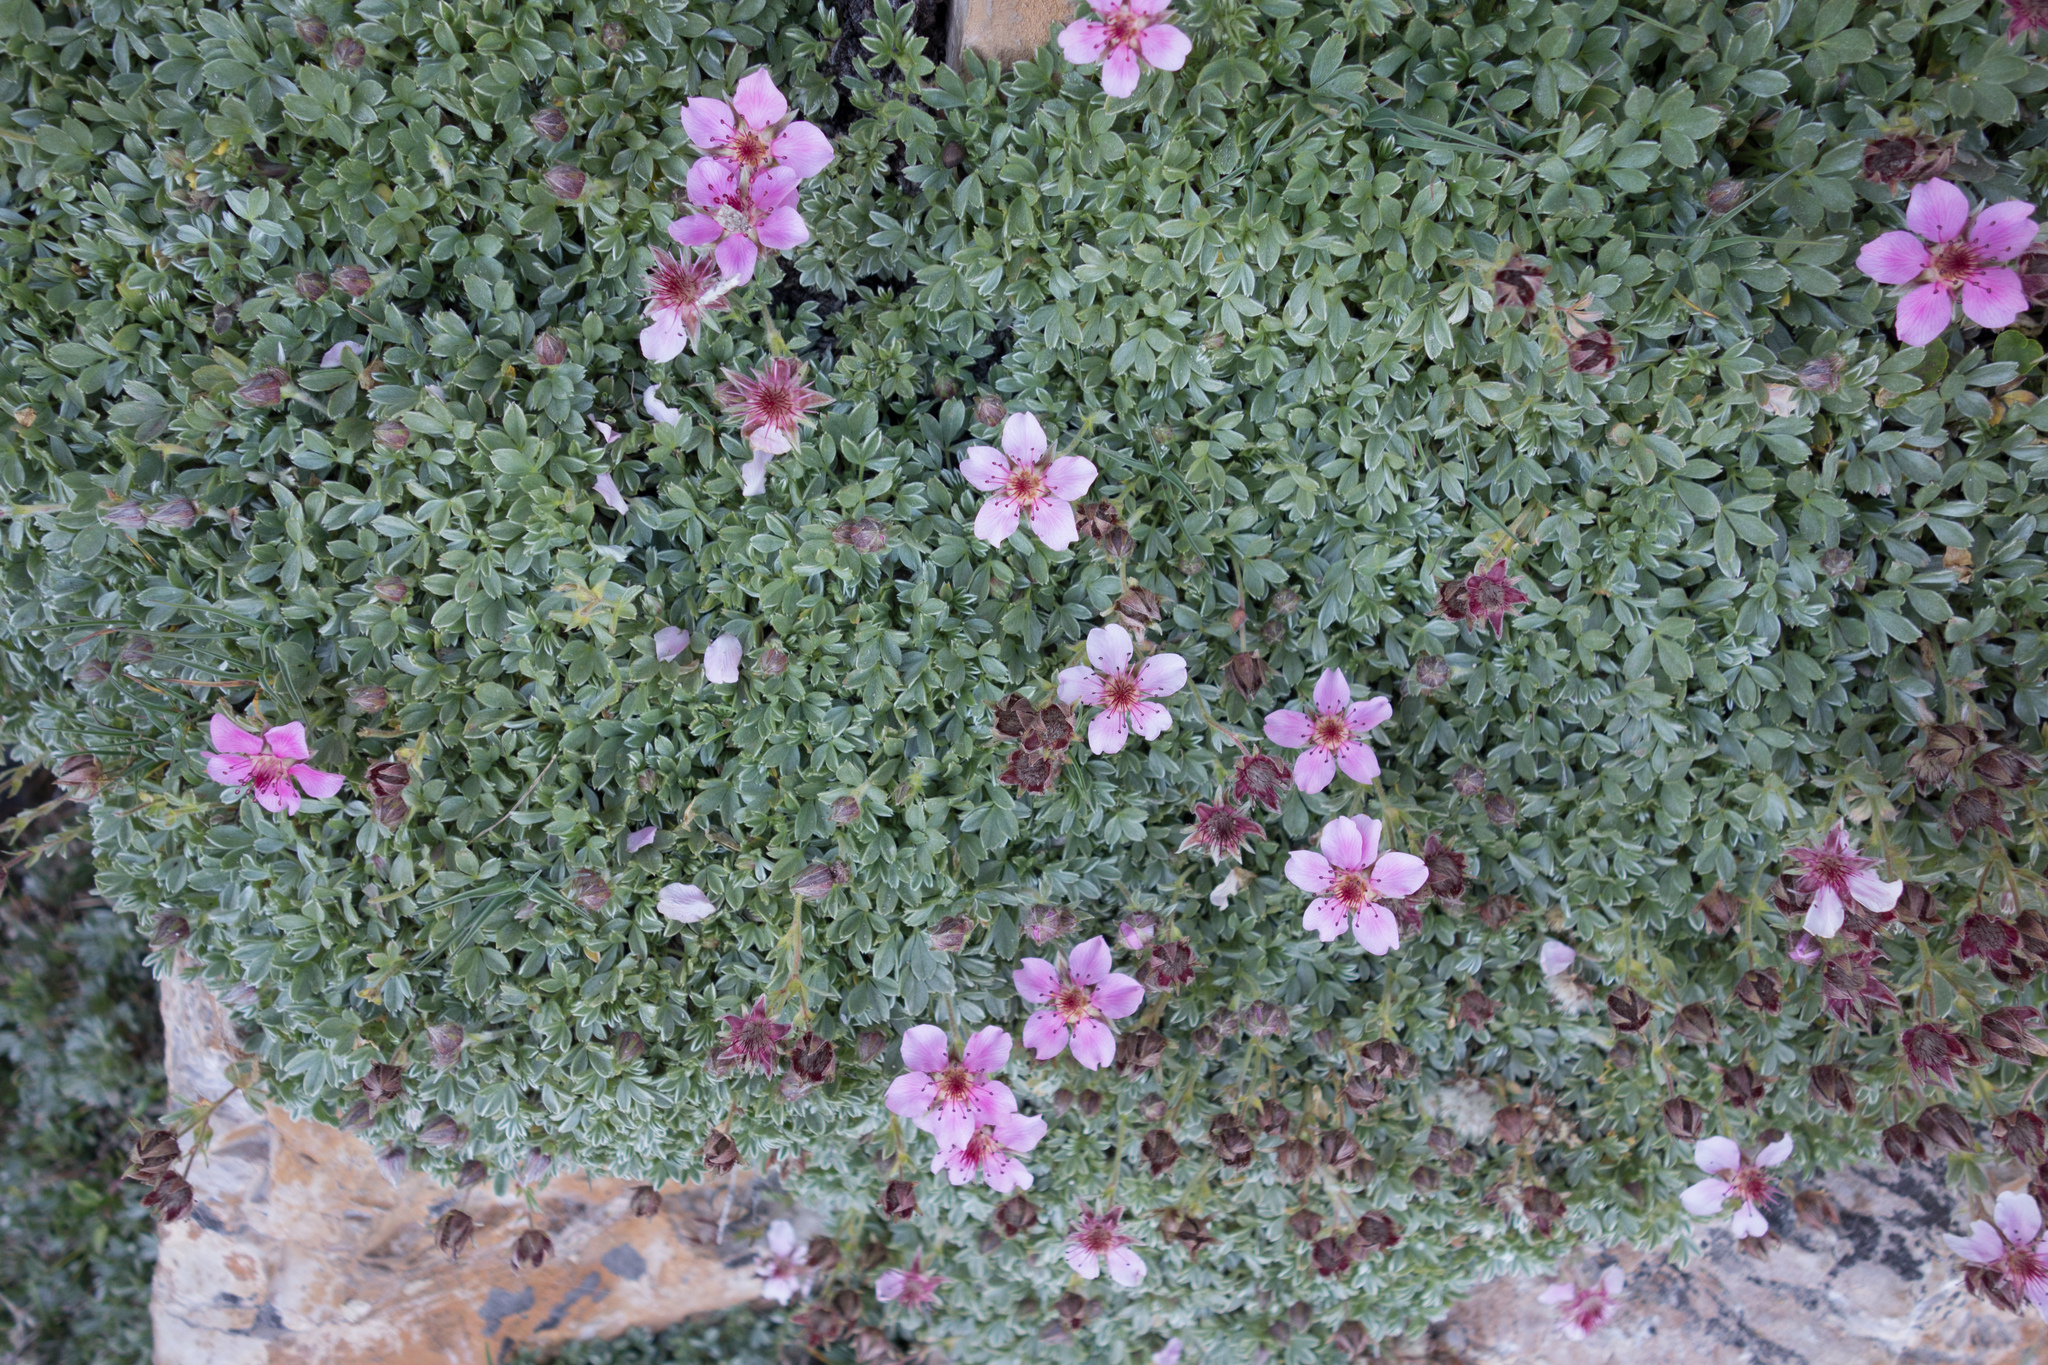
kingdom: Plantae
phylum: Tracheophyta
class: Magnoliopsida
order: Rosales
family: Rosaceae
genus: Potentilla
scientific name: Potentilla nitida
